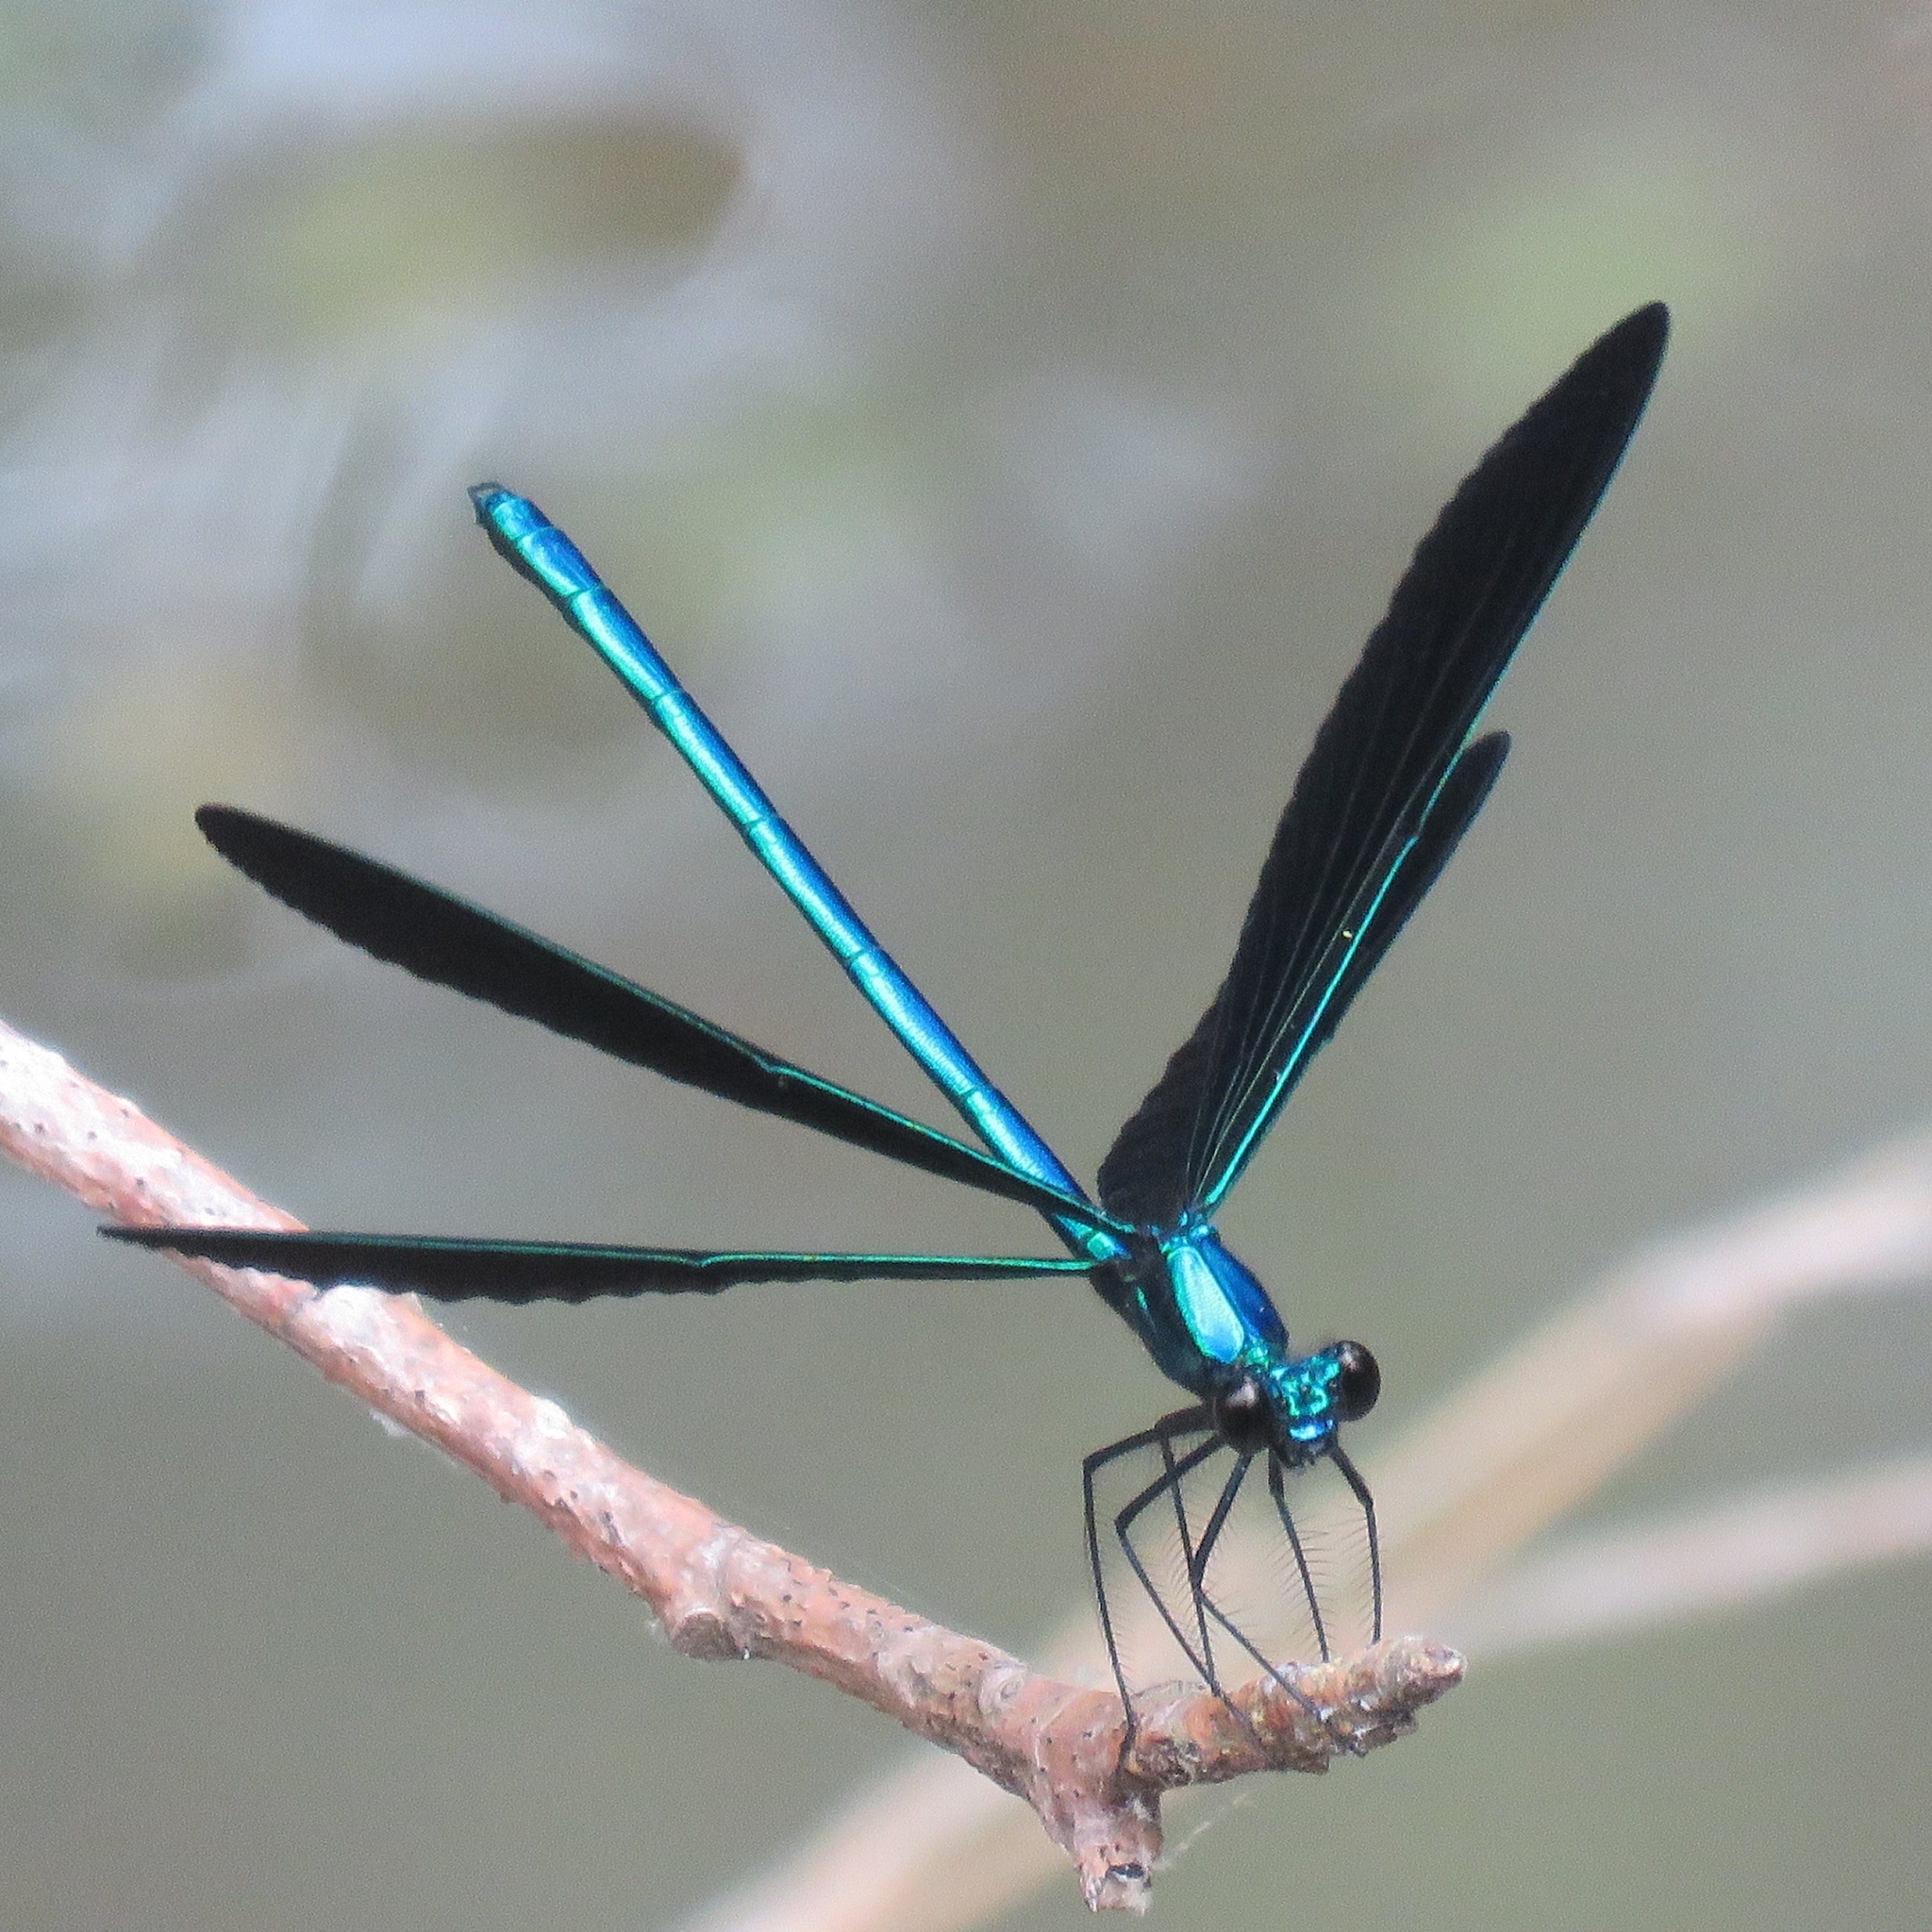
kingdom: Animalia
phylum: Arthropoda
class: Insecta
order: Odonata
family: Calopterygidae
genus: Calopteryx
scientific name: Calopteryx maculata
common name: Ebony jewelwing
